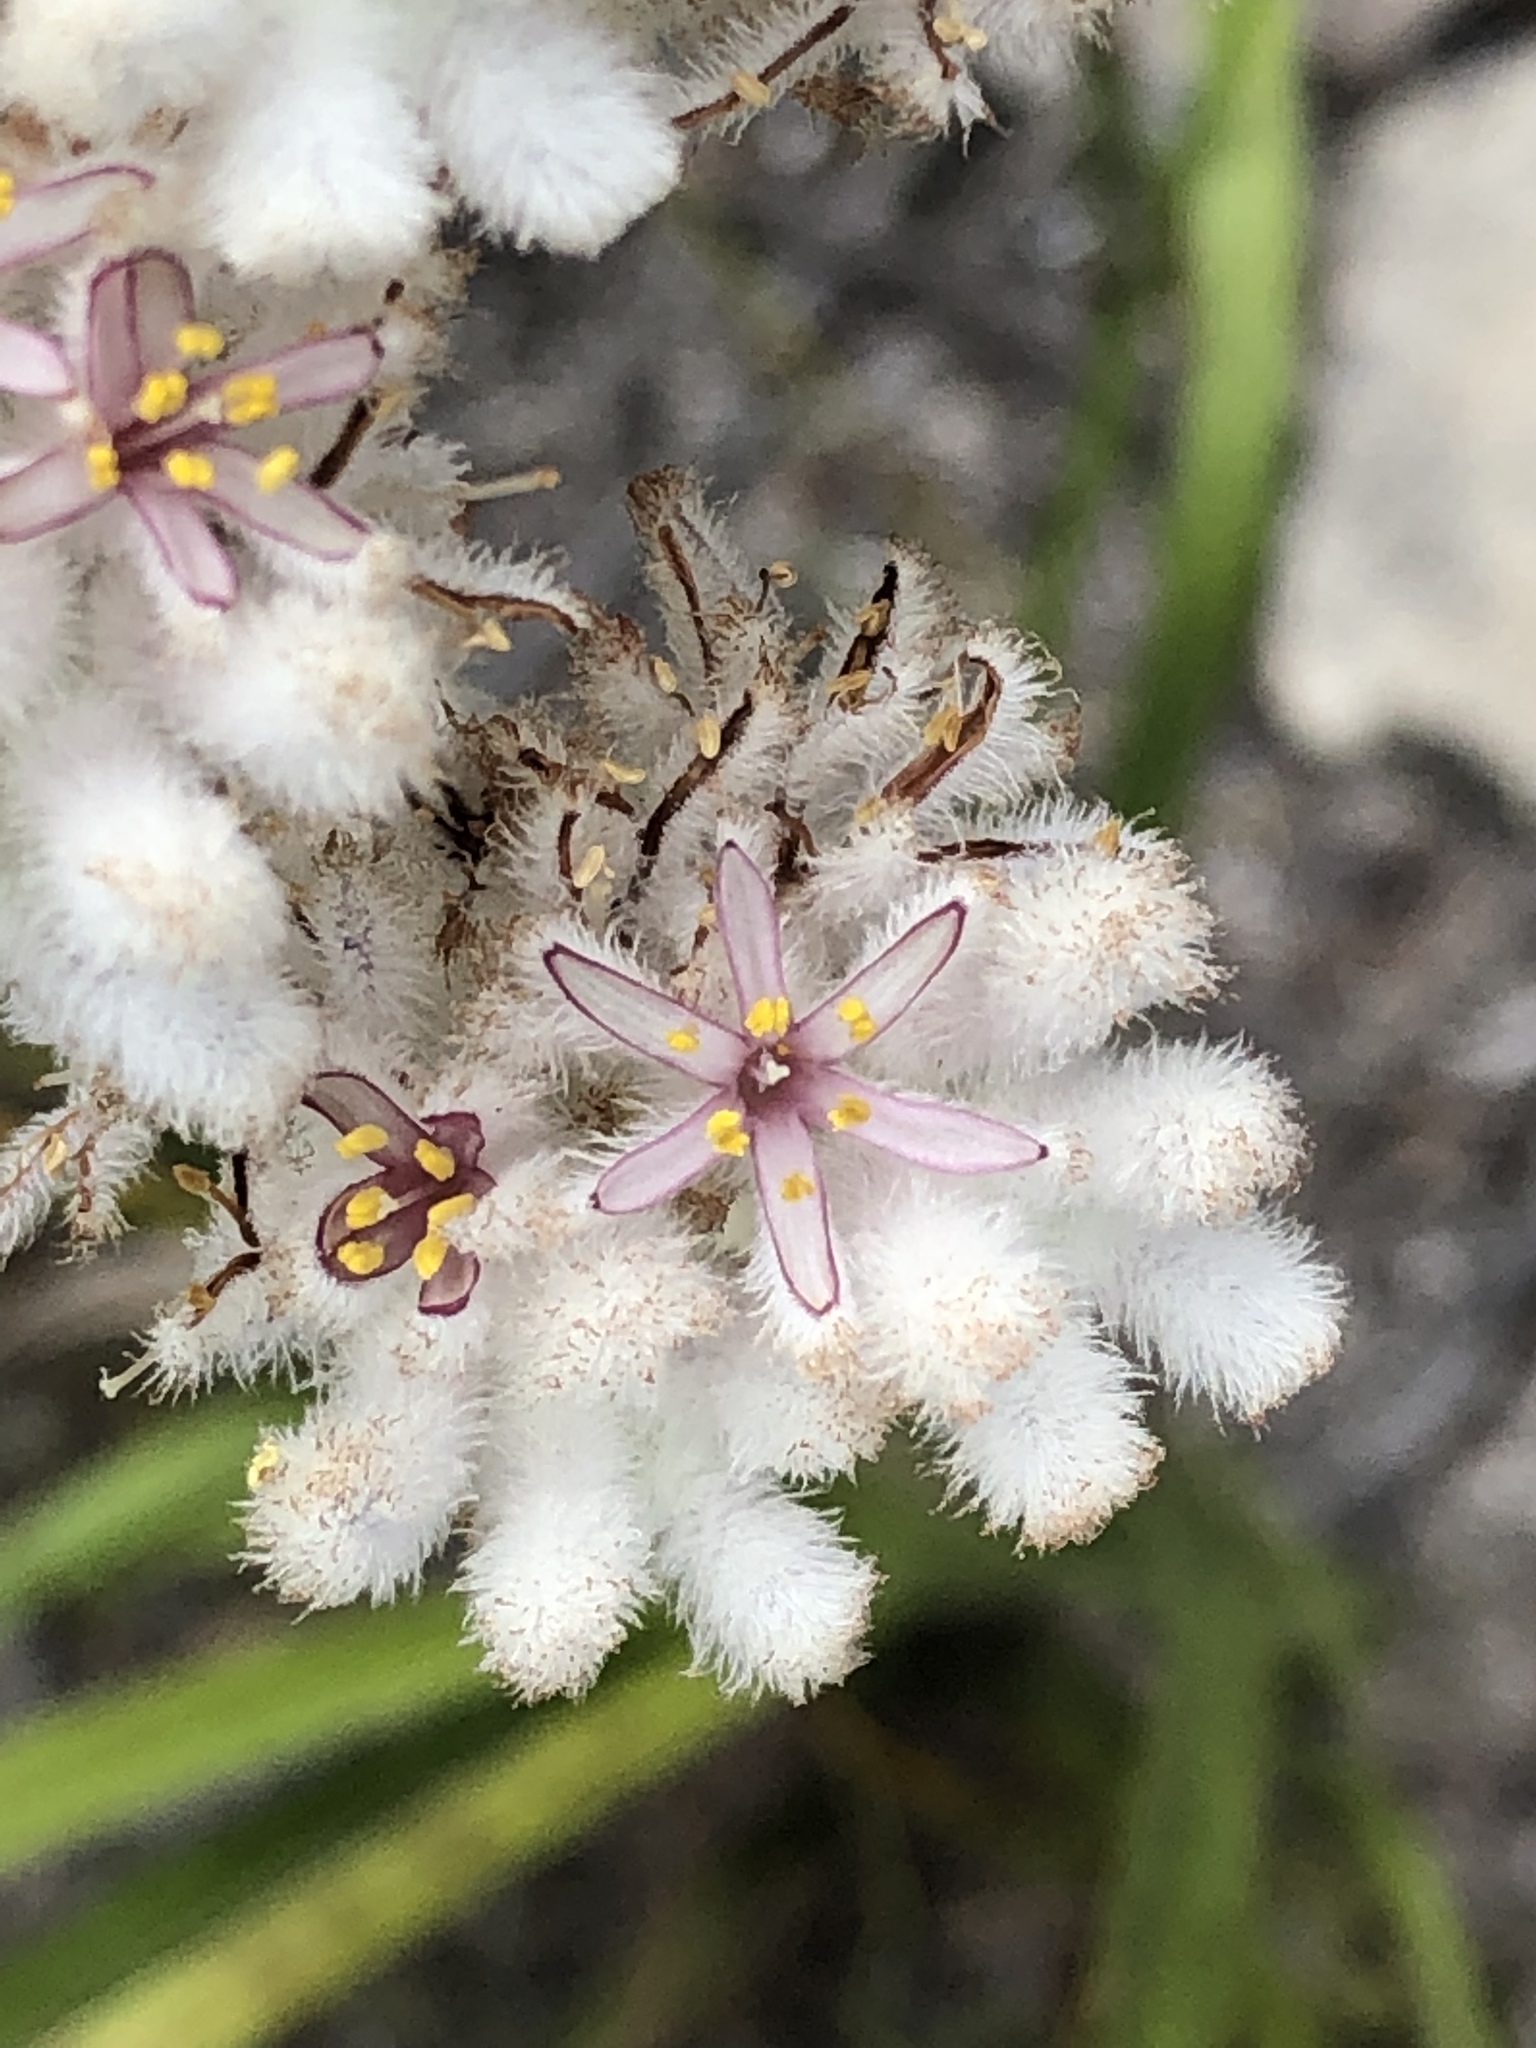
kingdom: Plantae
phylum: Tracheophyta
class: Liliopsida
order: Asparagales
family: Lanariaceae
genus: Lanaria
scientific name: Lanaria lanata
